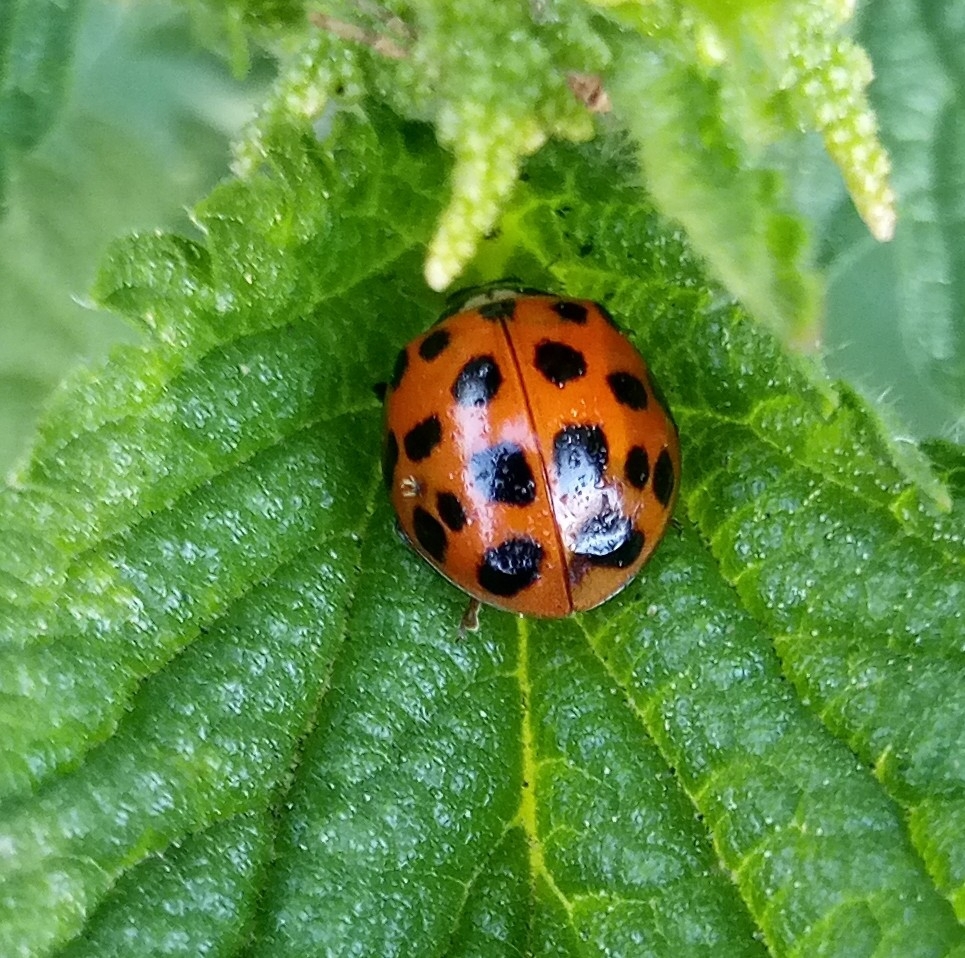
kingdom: Animalia
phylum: Arthropoda
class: Insecta
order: Coleoptera
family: Coccinellidae
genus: Harmonia
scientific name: Harmonia axyridis
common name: Harlequin ladybird
